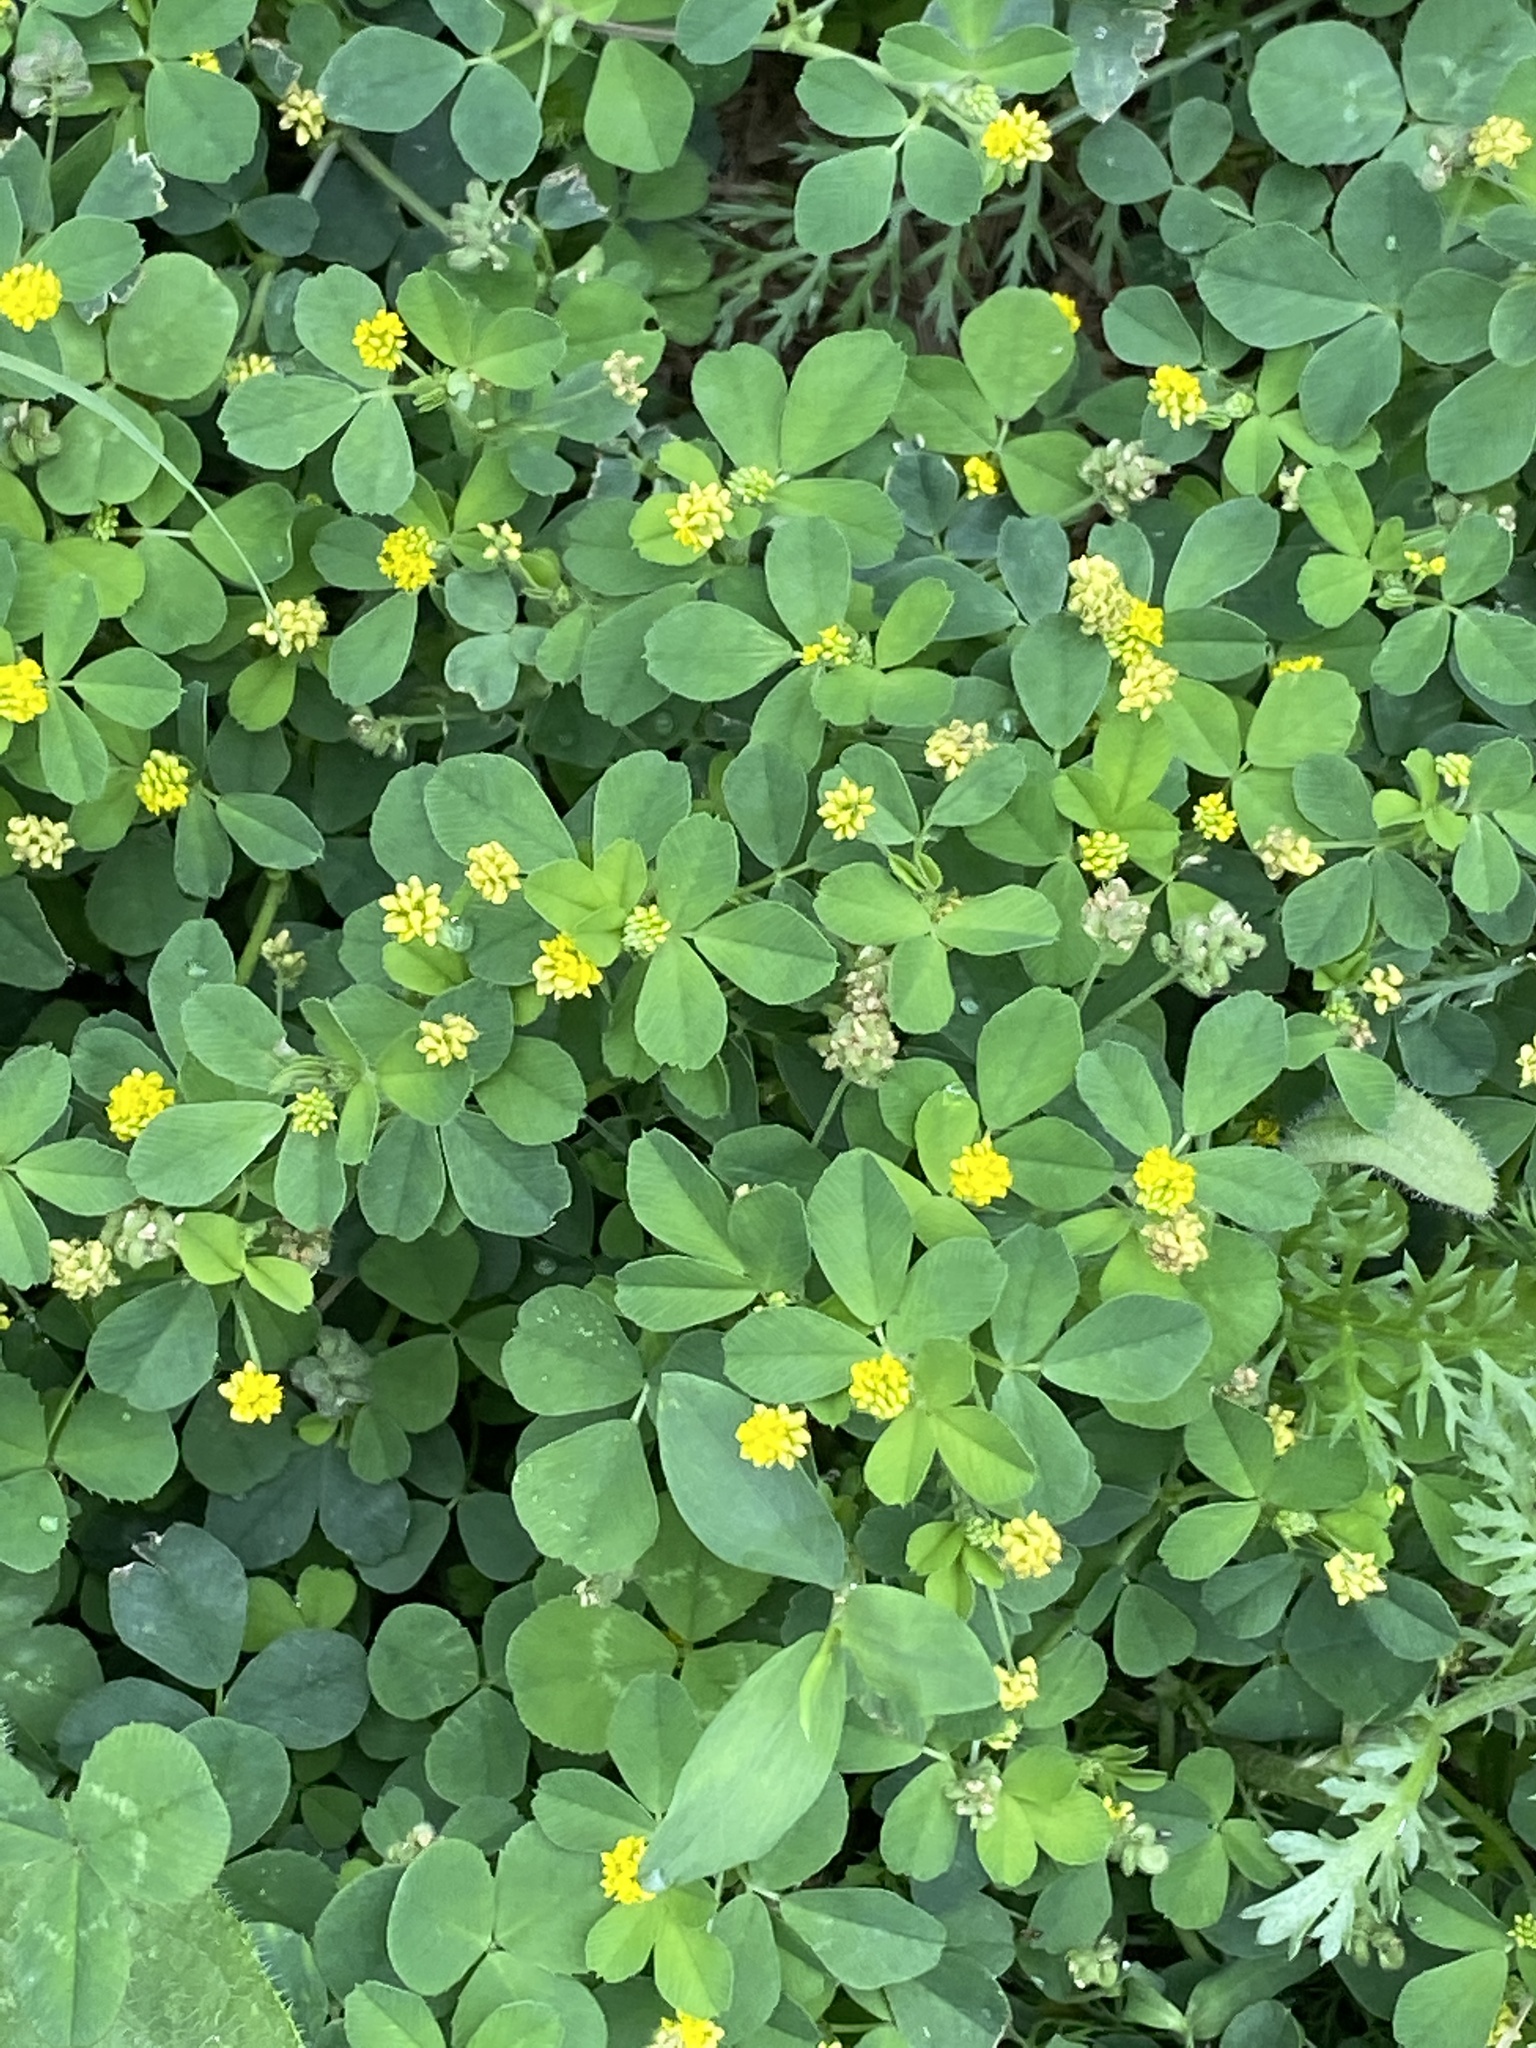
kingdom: Plantae
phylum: Tracheophyta
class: Magnoliopsida
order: Fabales
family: Fabaceae
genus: Medicago
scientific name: Medicago lupulina
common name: Black medick
